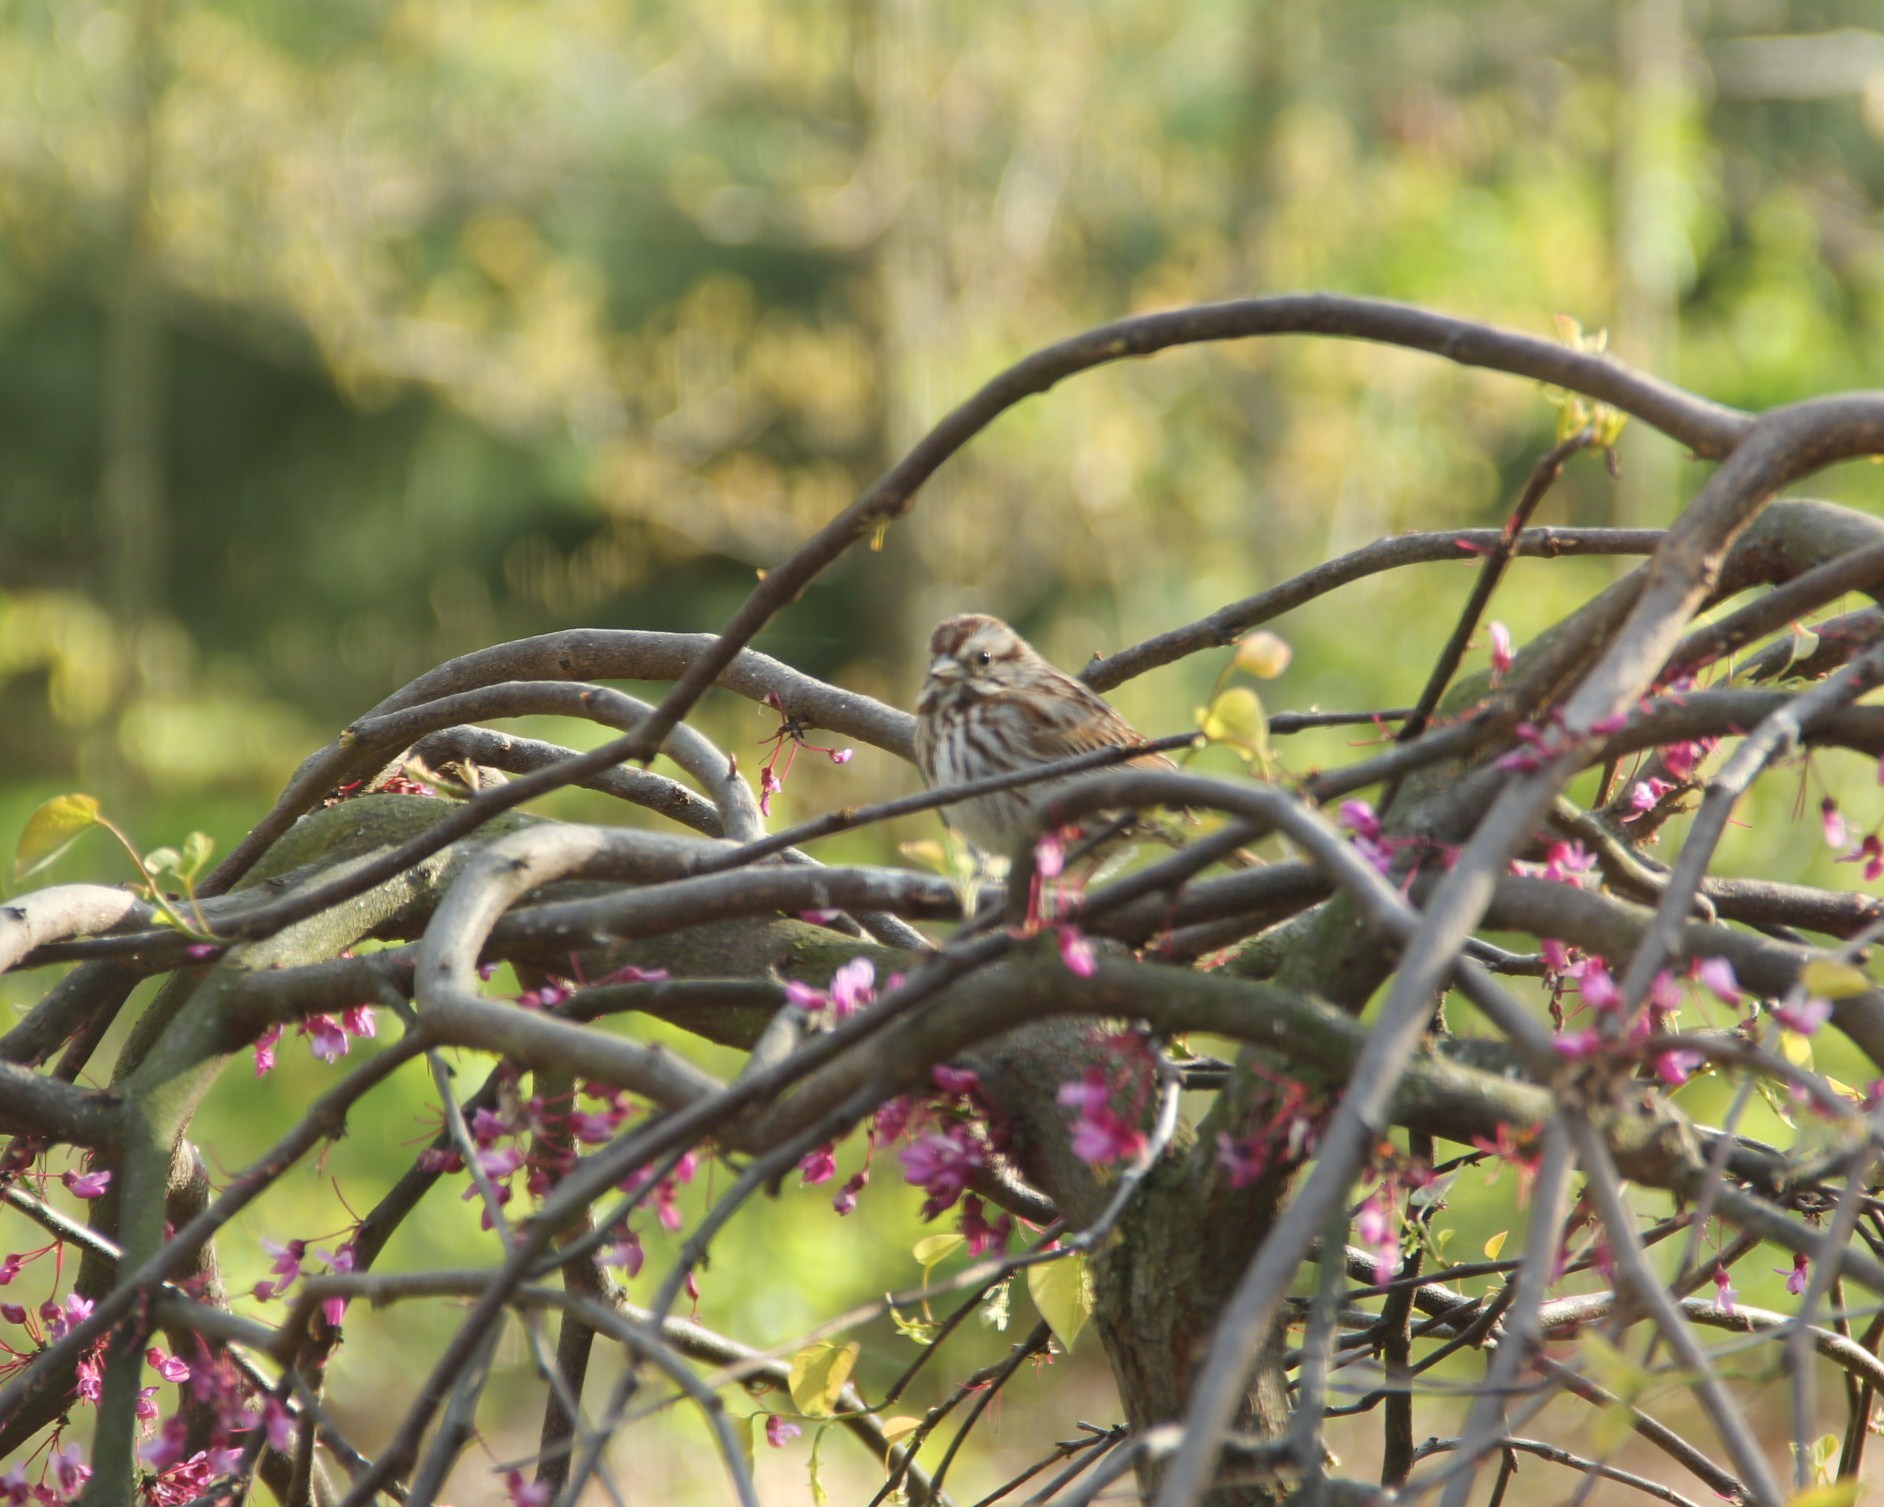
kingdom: Animalia
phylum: Chordata
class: Aves
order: Passeriformes
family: Passerellidae
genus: Melospiza
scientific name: Melospiza melodia
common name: Song sparrow
